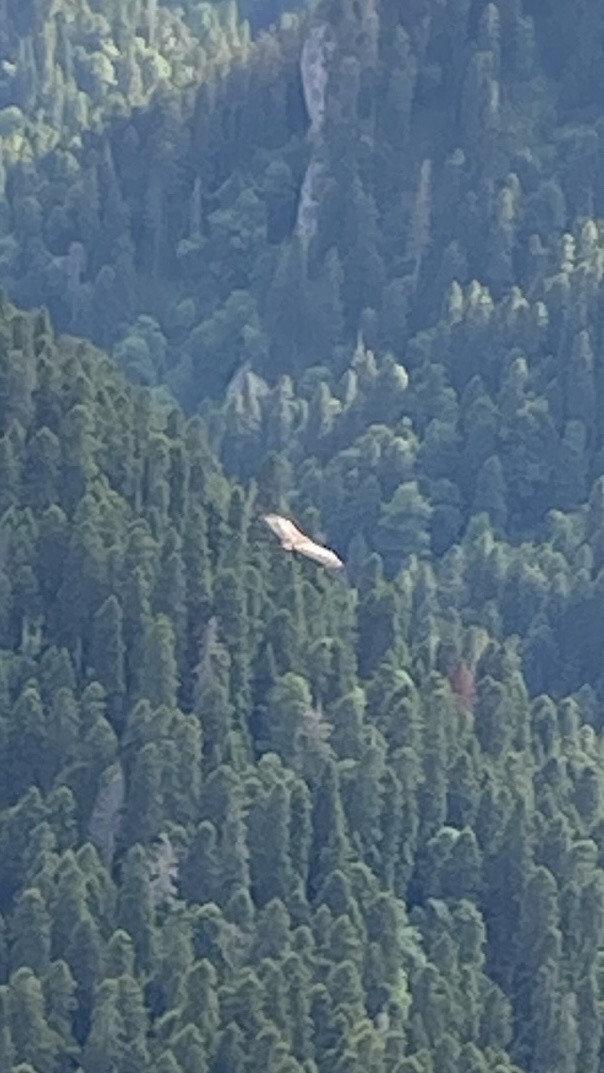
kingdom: Animalia
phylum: Chordata
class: Aves
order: Accipitriformes
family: Accipitridae
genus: Gyps
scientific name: Gyps fulvus
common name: Griffon vulture
